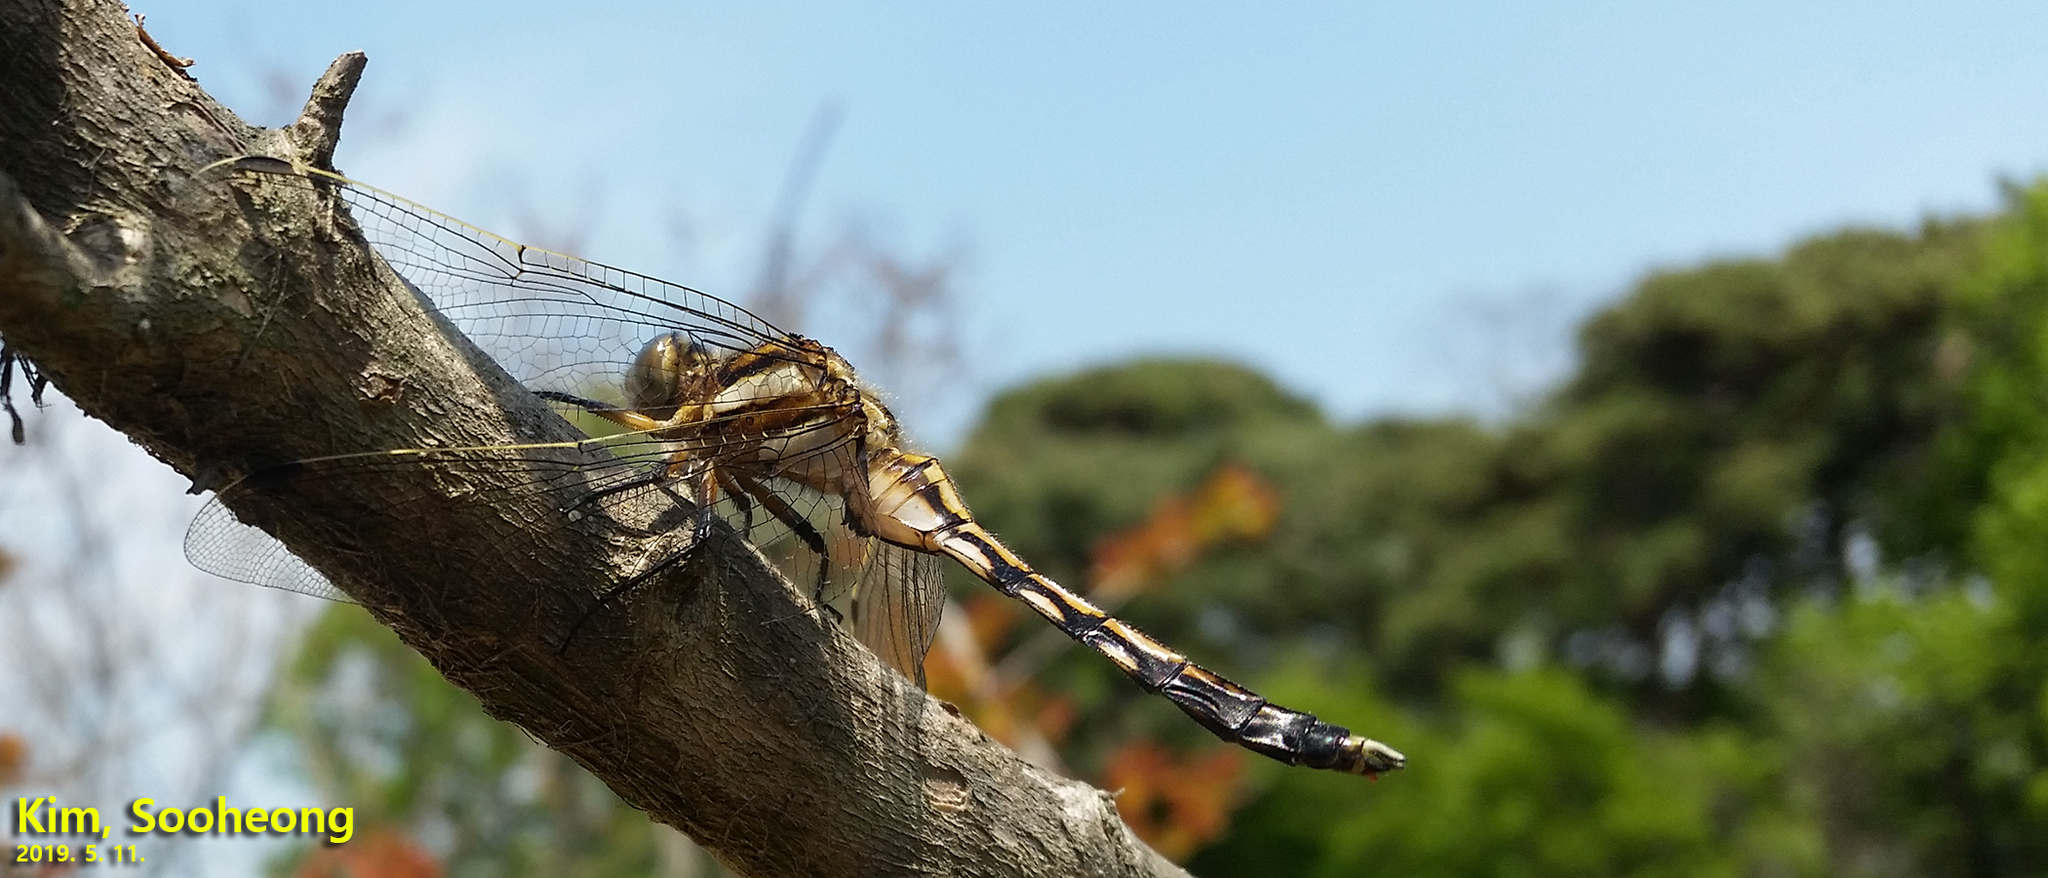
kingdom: Animalia
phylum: Arthropoda
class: Insecta
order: Odonata
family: Libellulidae
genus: Orthetrum
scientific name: Orthetrum albistylum
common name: White-tailed skimmer
